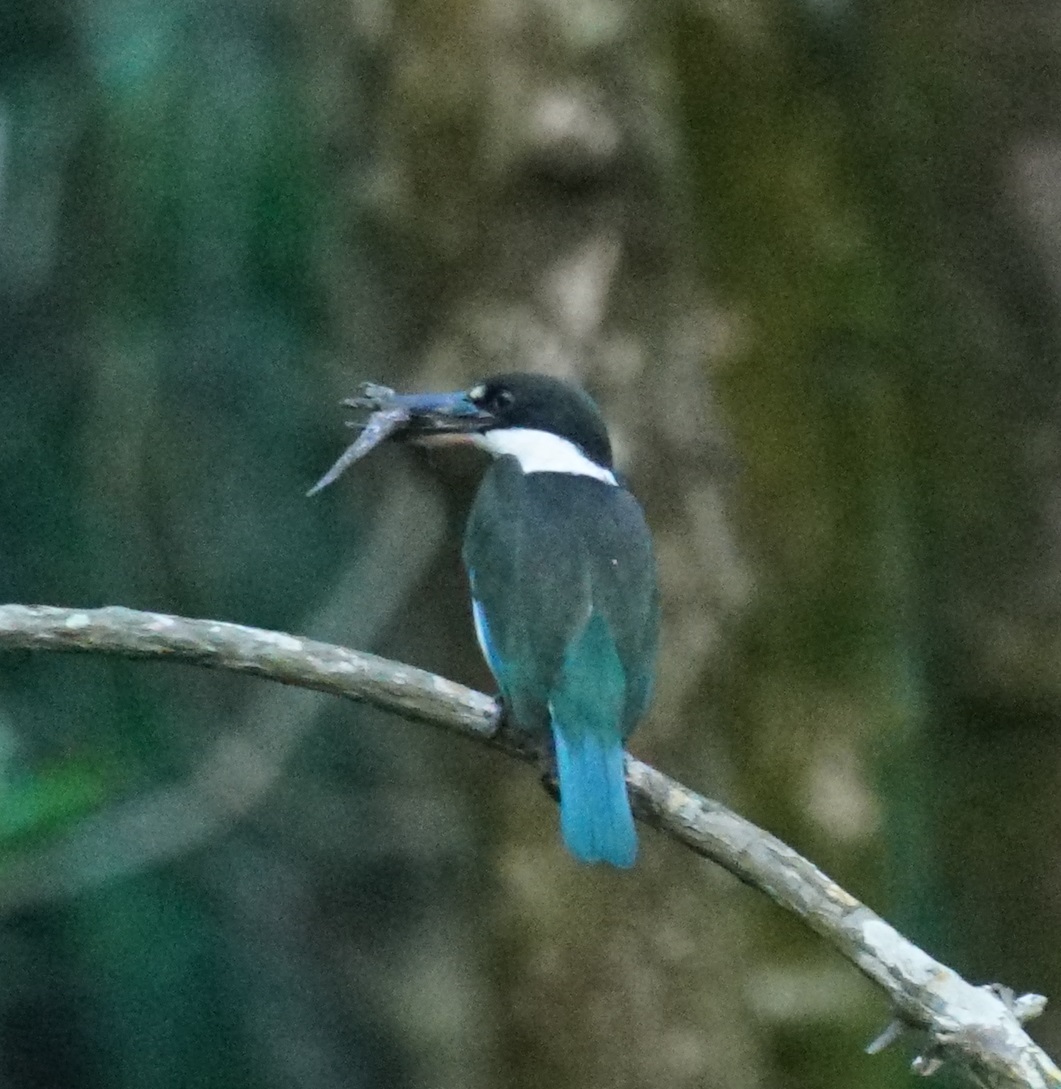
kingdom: Animalia
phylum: Chordata
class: Aves
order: Coraciiformes
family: Alcedinidae
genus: Todiramphus
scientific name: Todiramphus sordidus
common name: Torresian kingfisher
